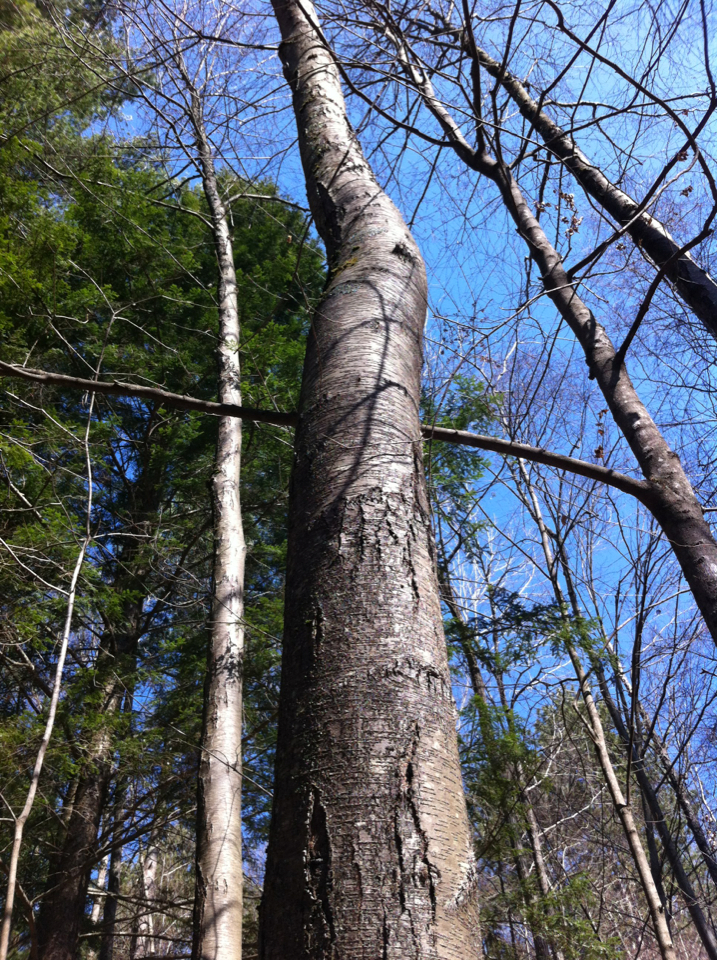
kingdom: Plantae
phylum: Tracheophyta
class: Magnoliopsida
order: Fagales
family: Betulaceae
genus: Betula
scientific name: Betula lenta
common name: Black birch
